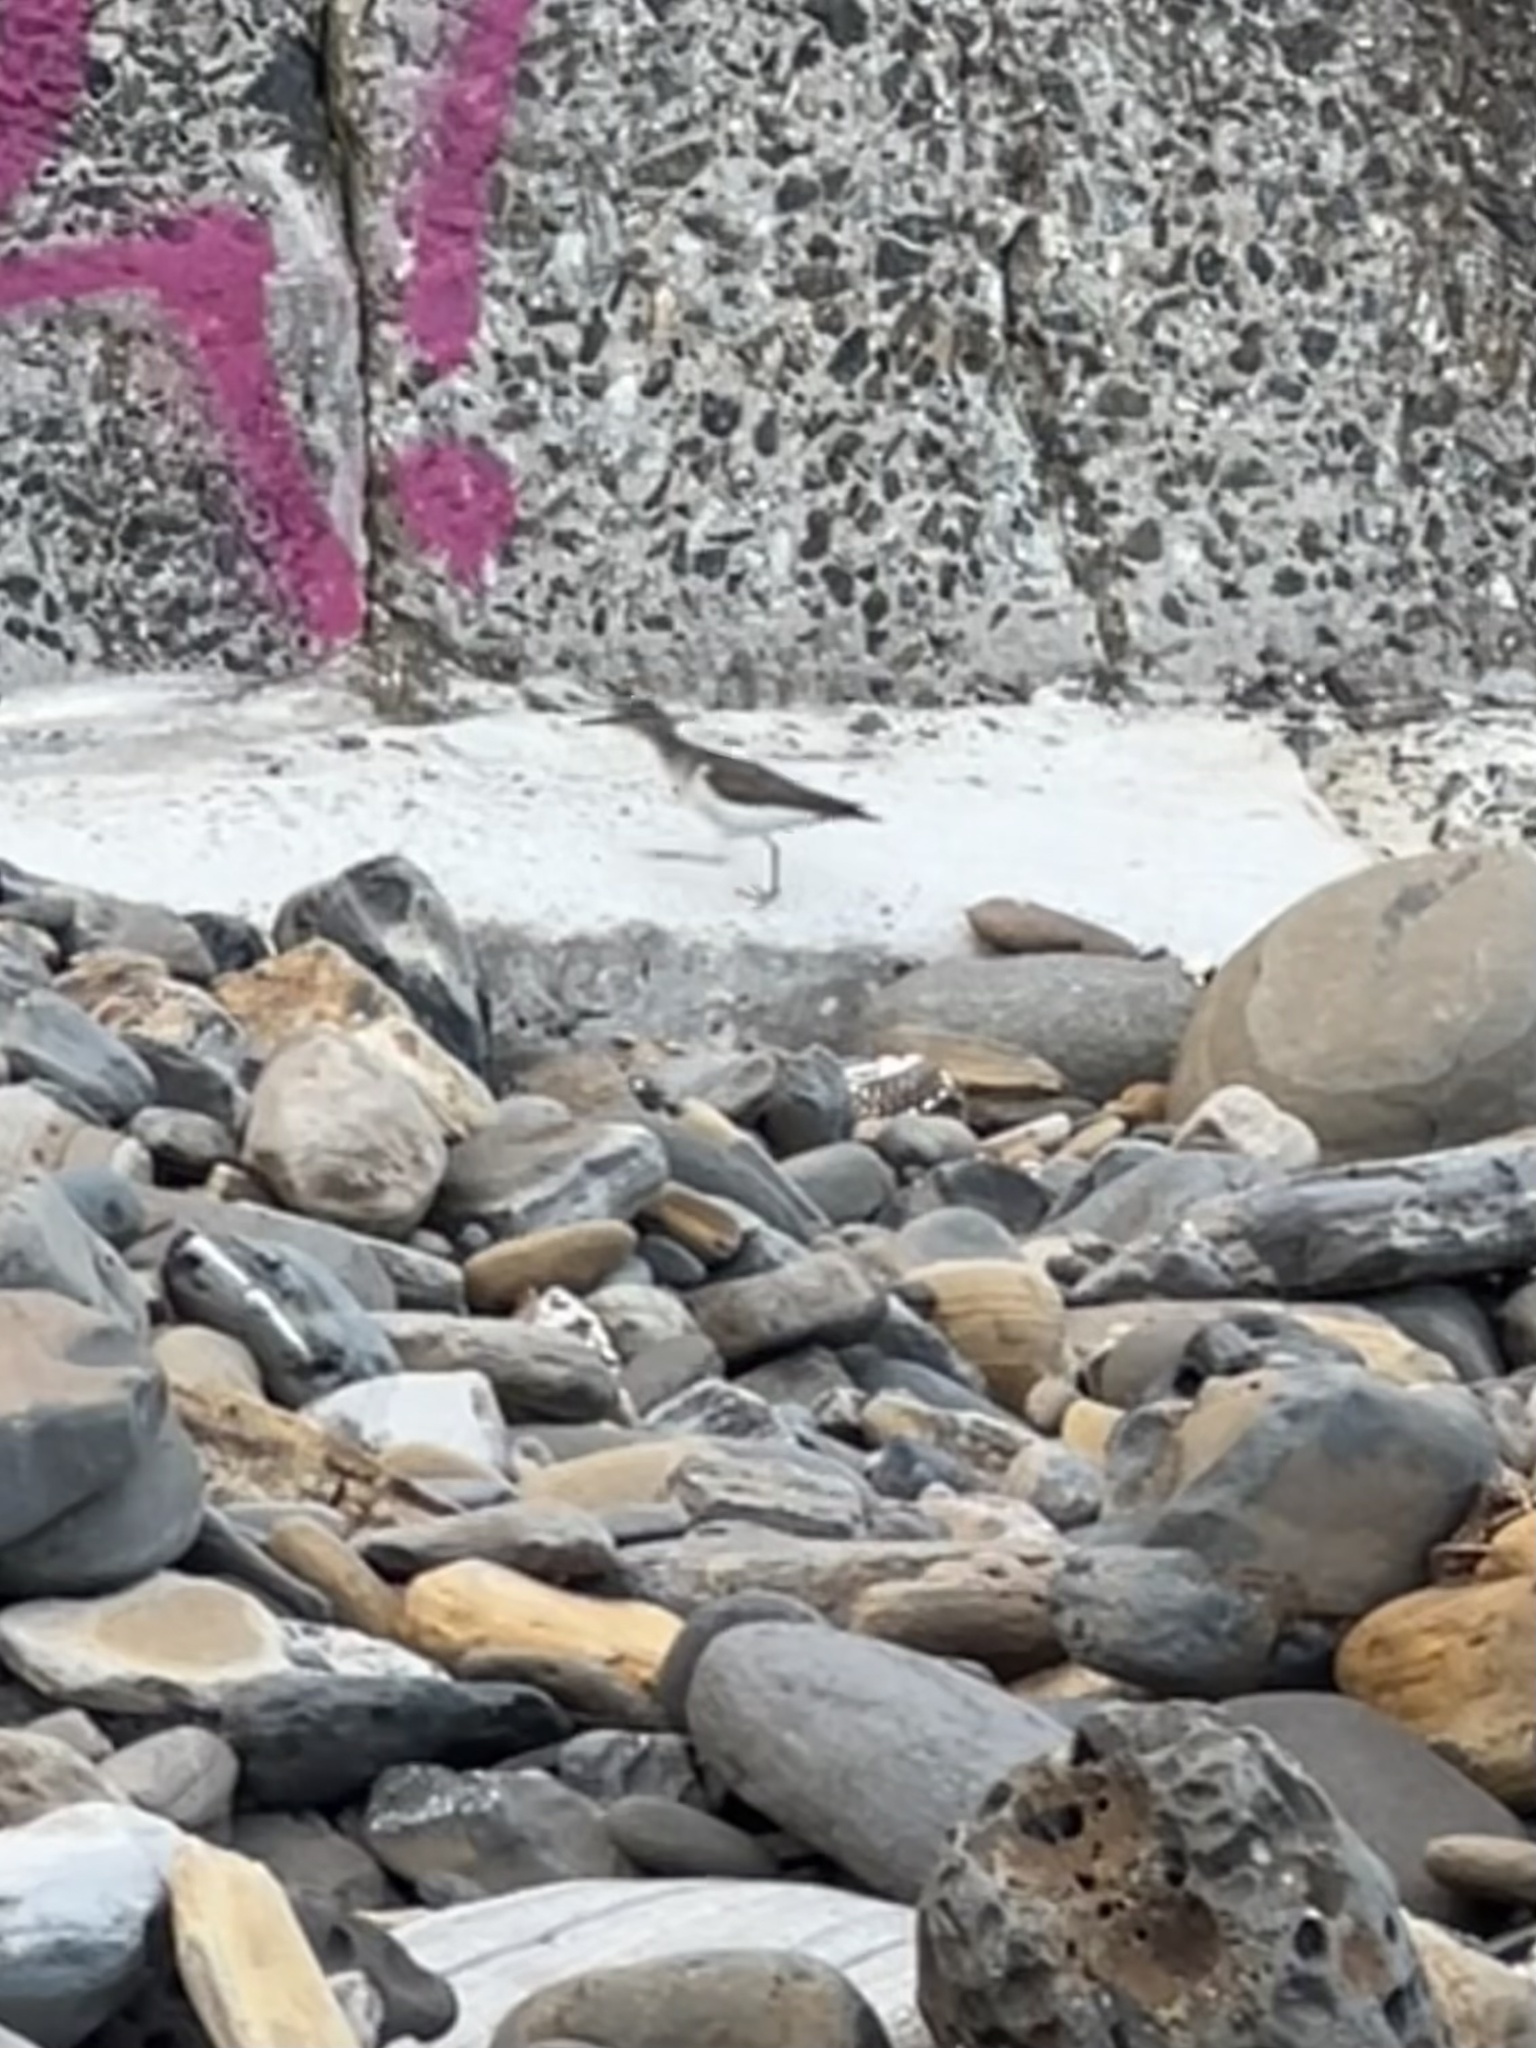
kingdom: Animalia
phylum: Chordata
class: Aves
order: Charadriiformes
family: Scolopacidae
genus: Actitis
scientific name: Actitis macularius
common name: Spotted sandpiper
